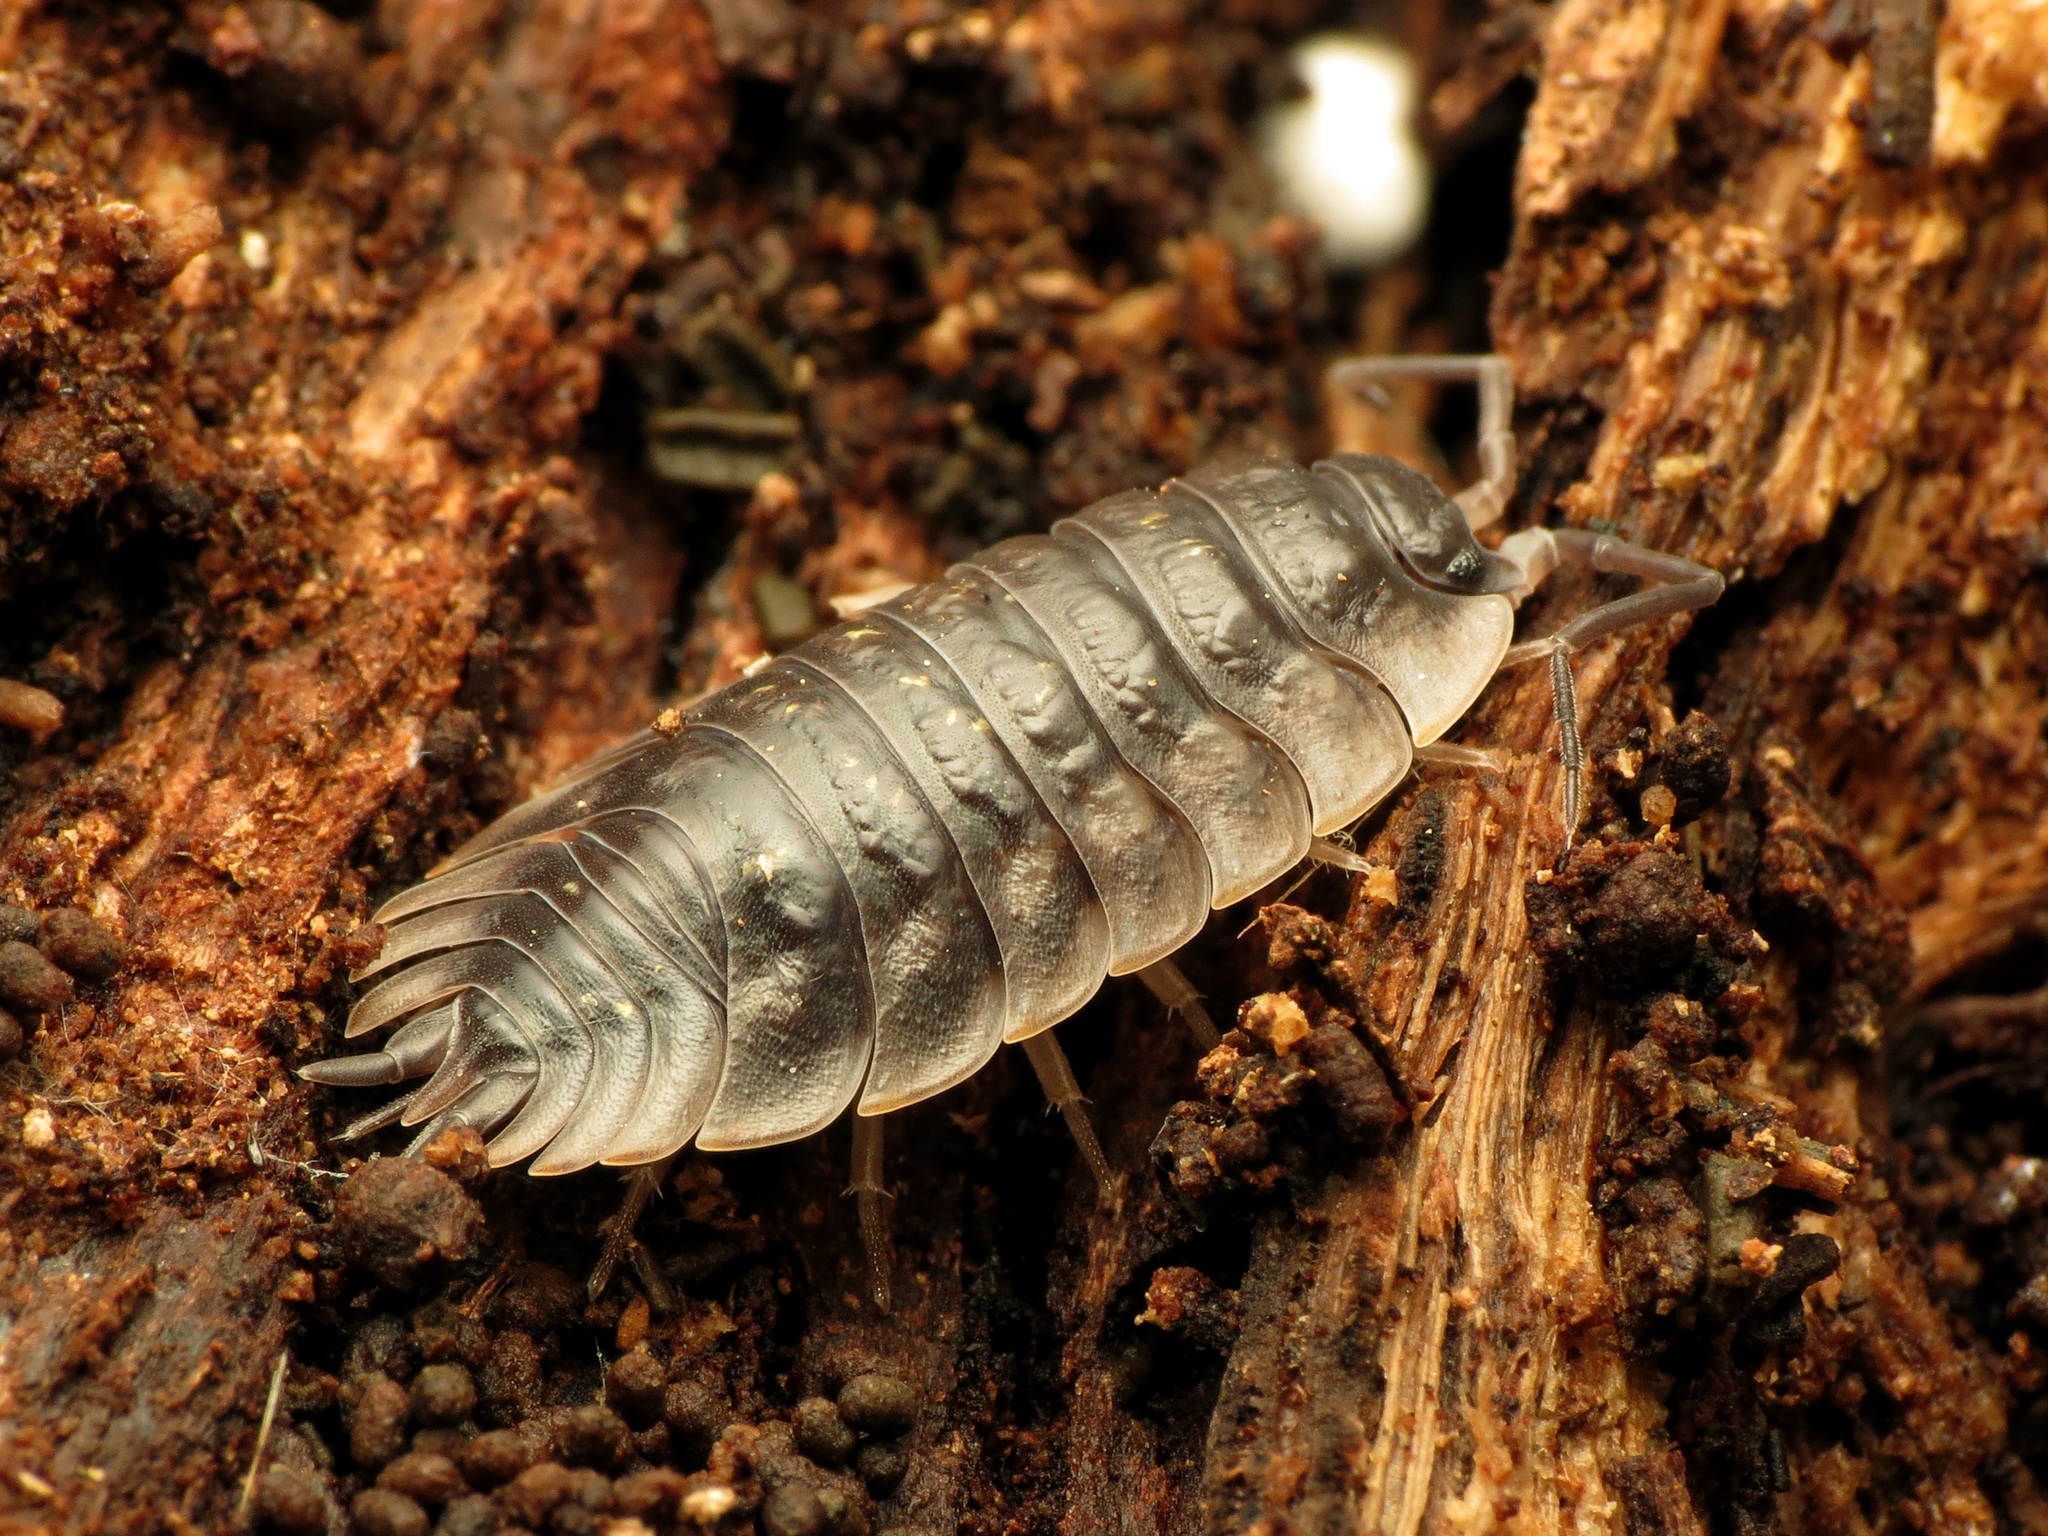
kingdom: Animalia
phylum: Arthropoda
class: Malacostraca
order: Isopoda
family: Oniscidae
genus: Oniscus
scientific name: Oniscus asellus
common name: Common shiny woodlouse
